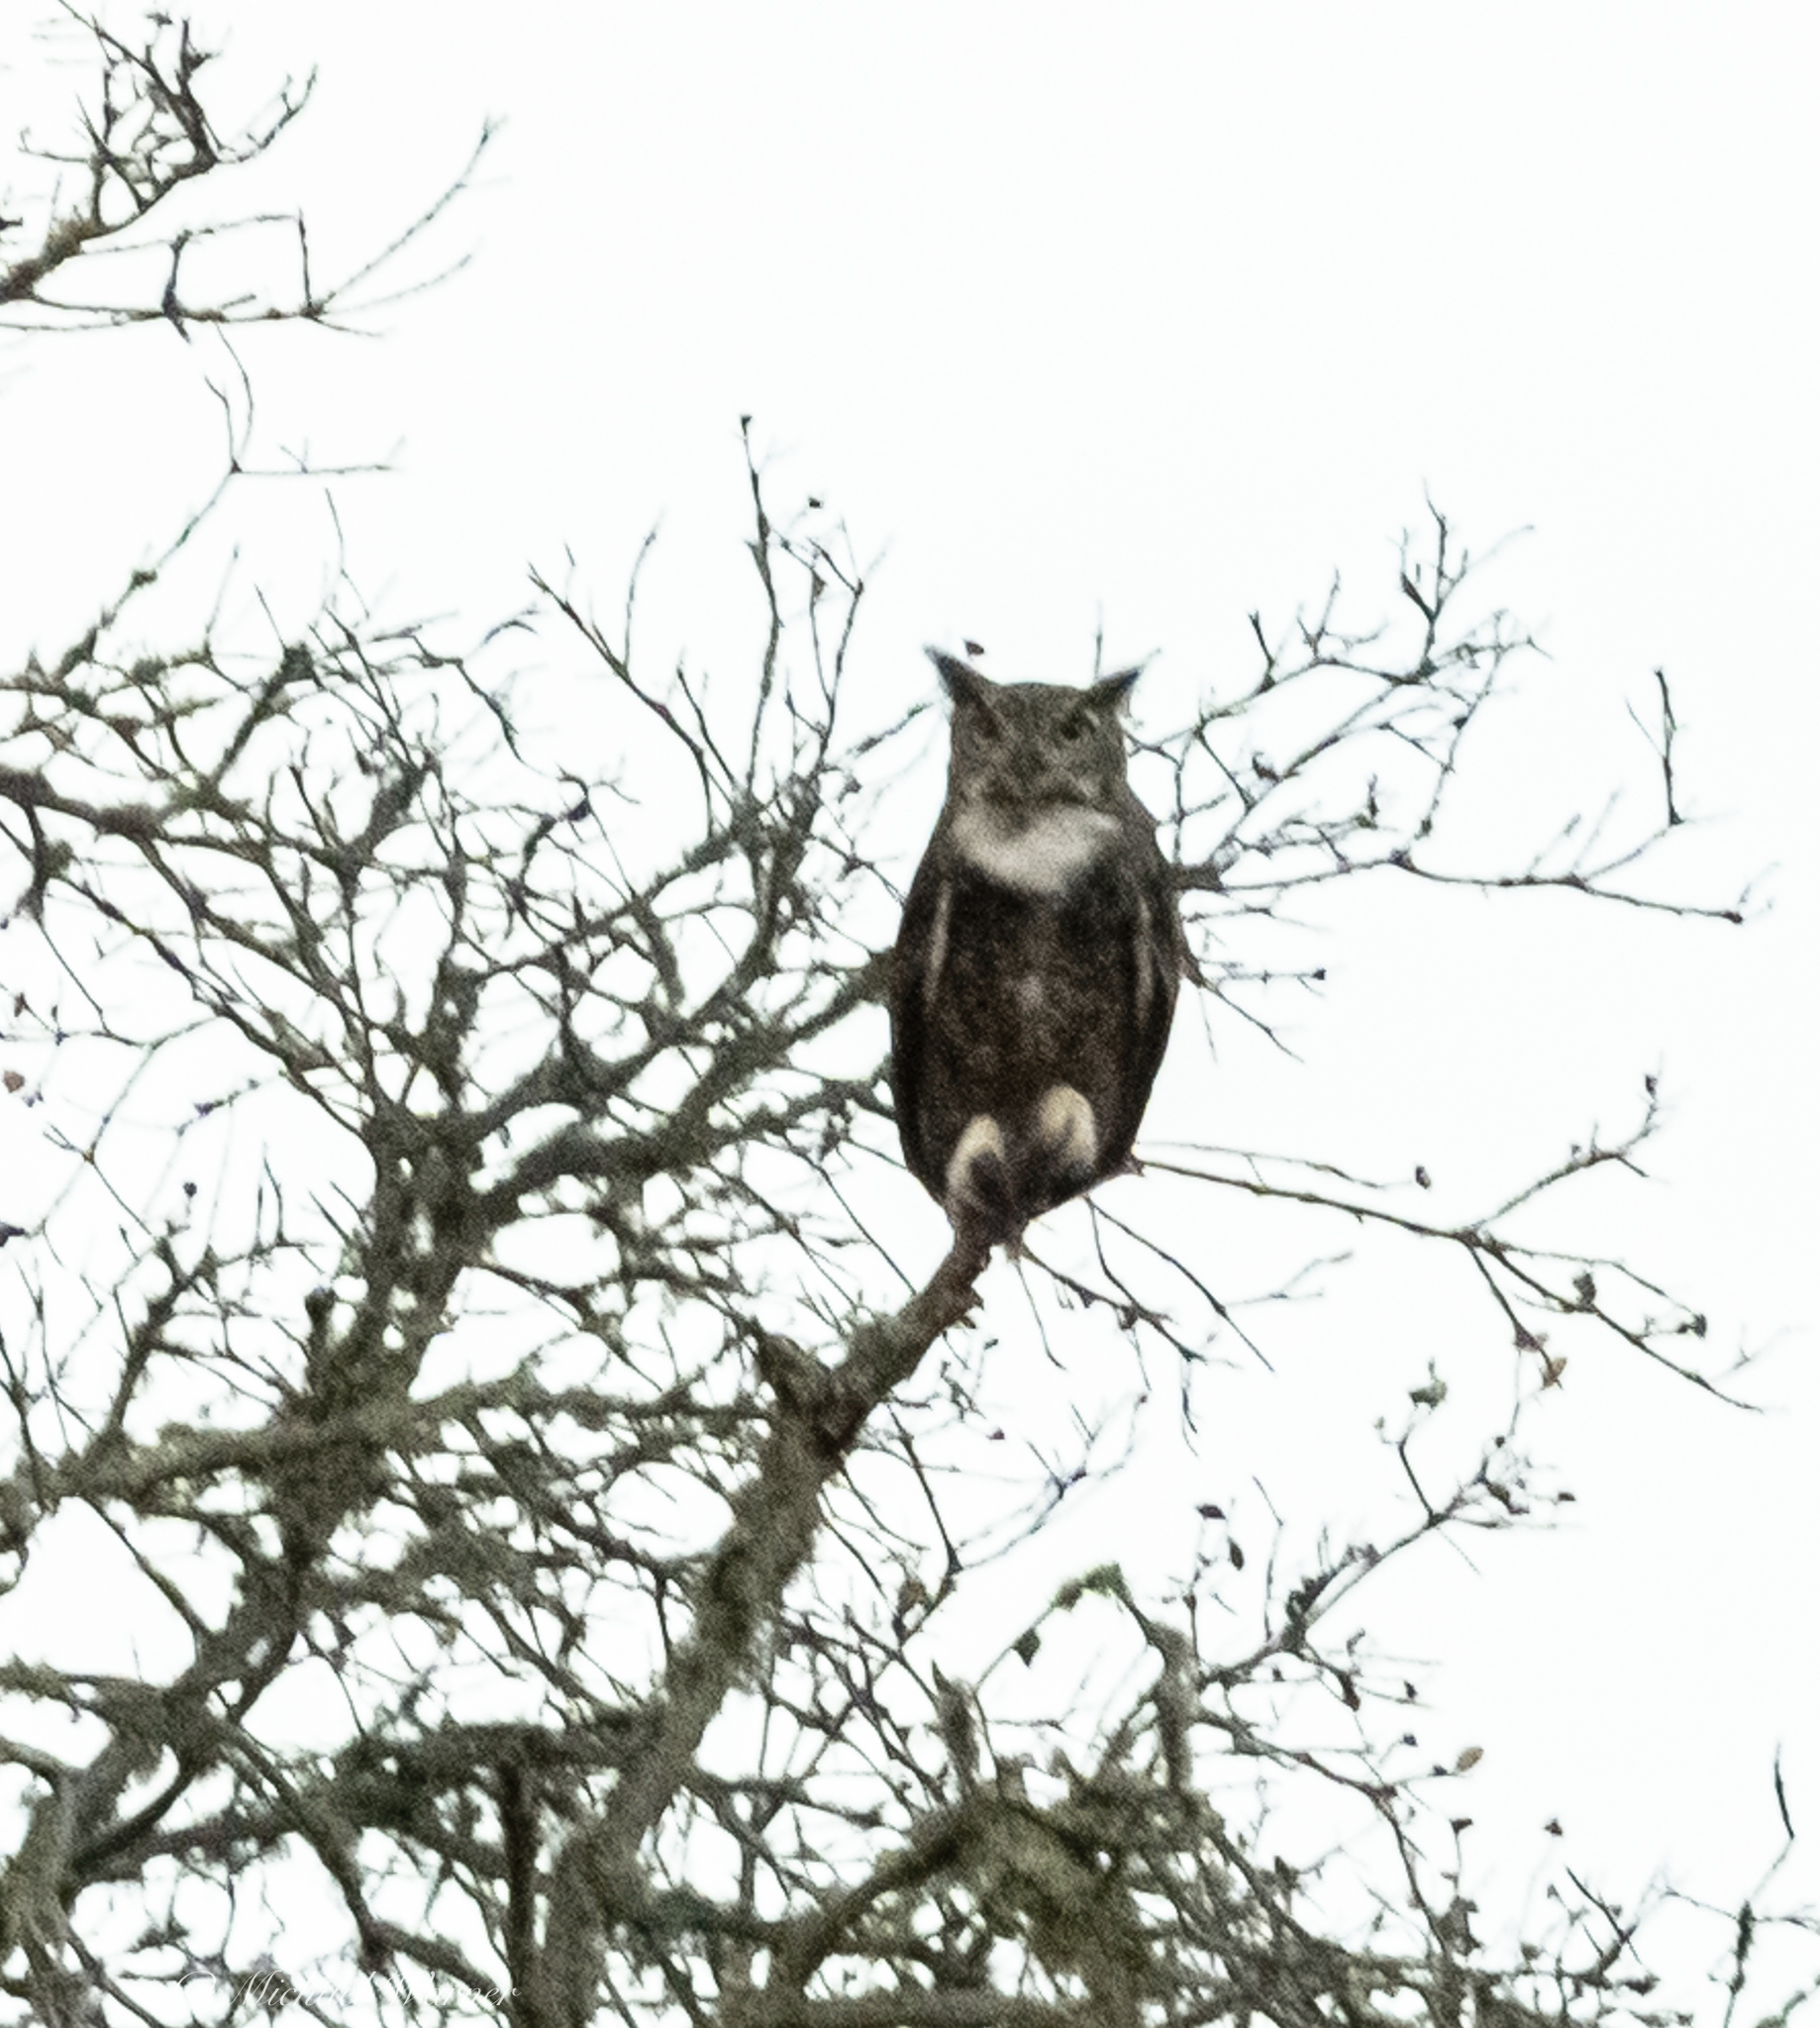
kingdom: Animalia
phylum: Chordata
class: Aves
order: Strigiformes
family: Strigidae
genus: Bubo
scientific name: Bubo virginianus
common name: Great horned owl
